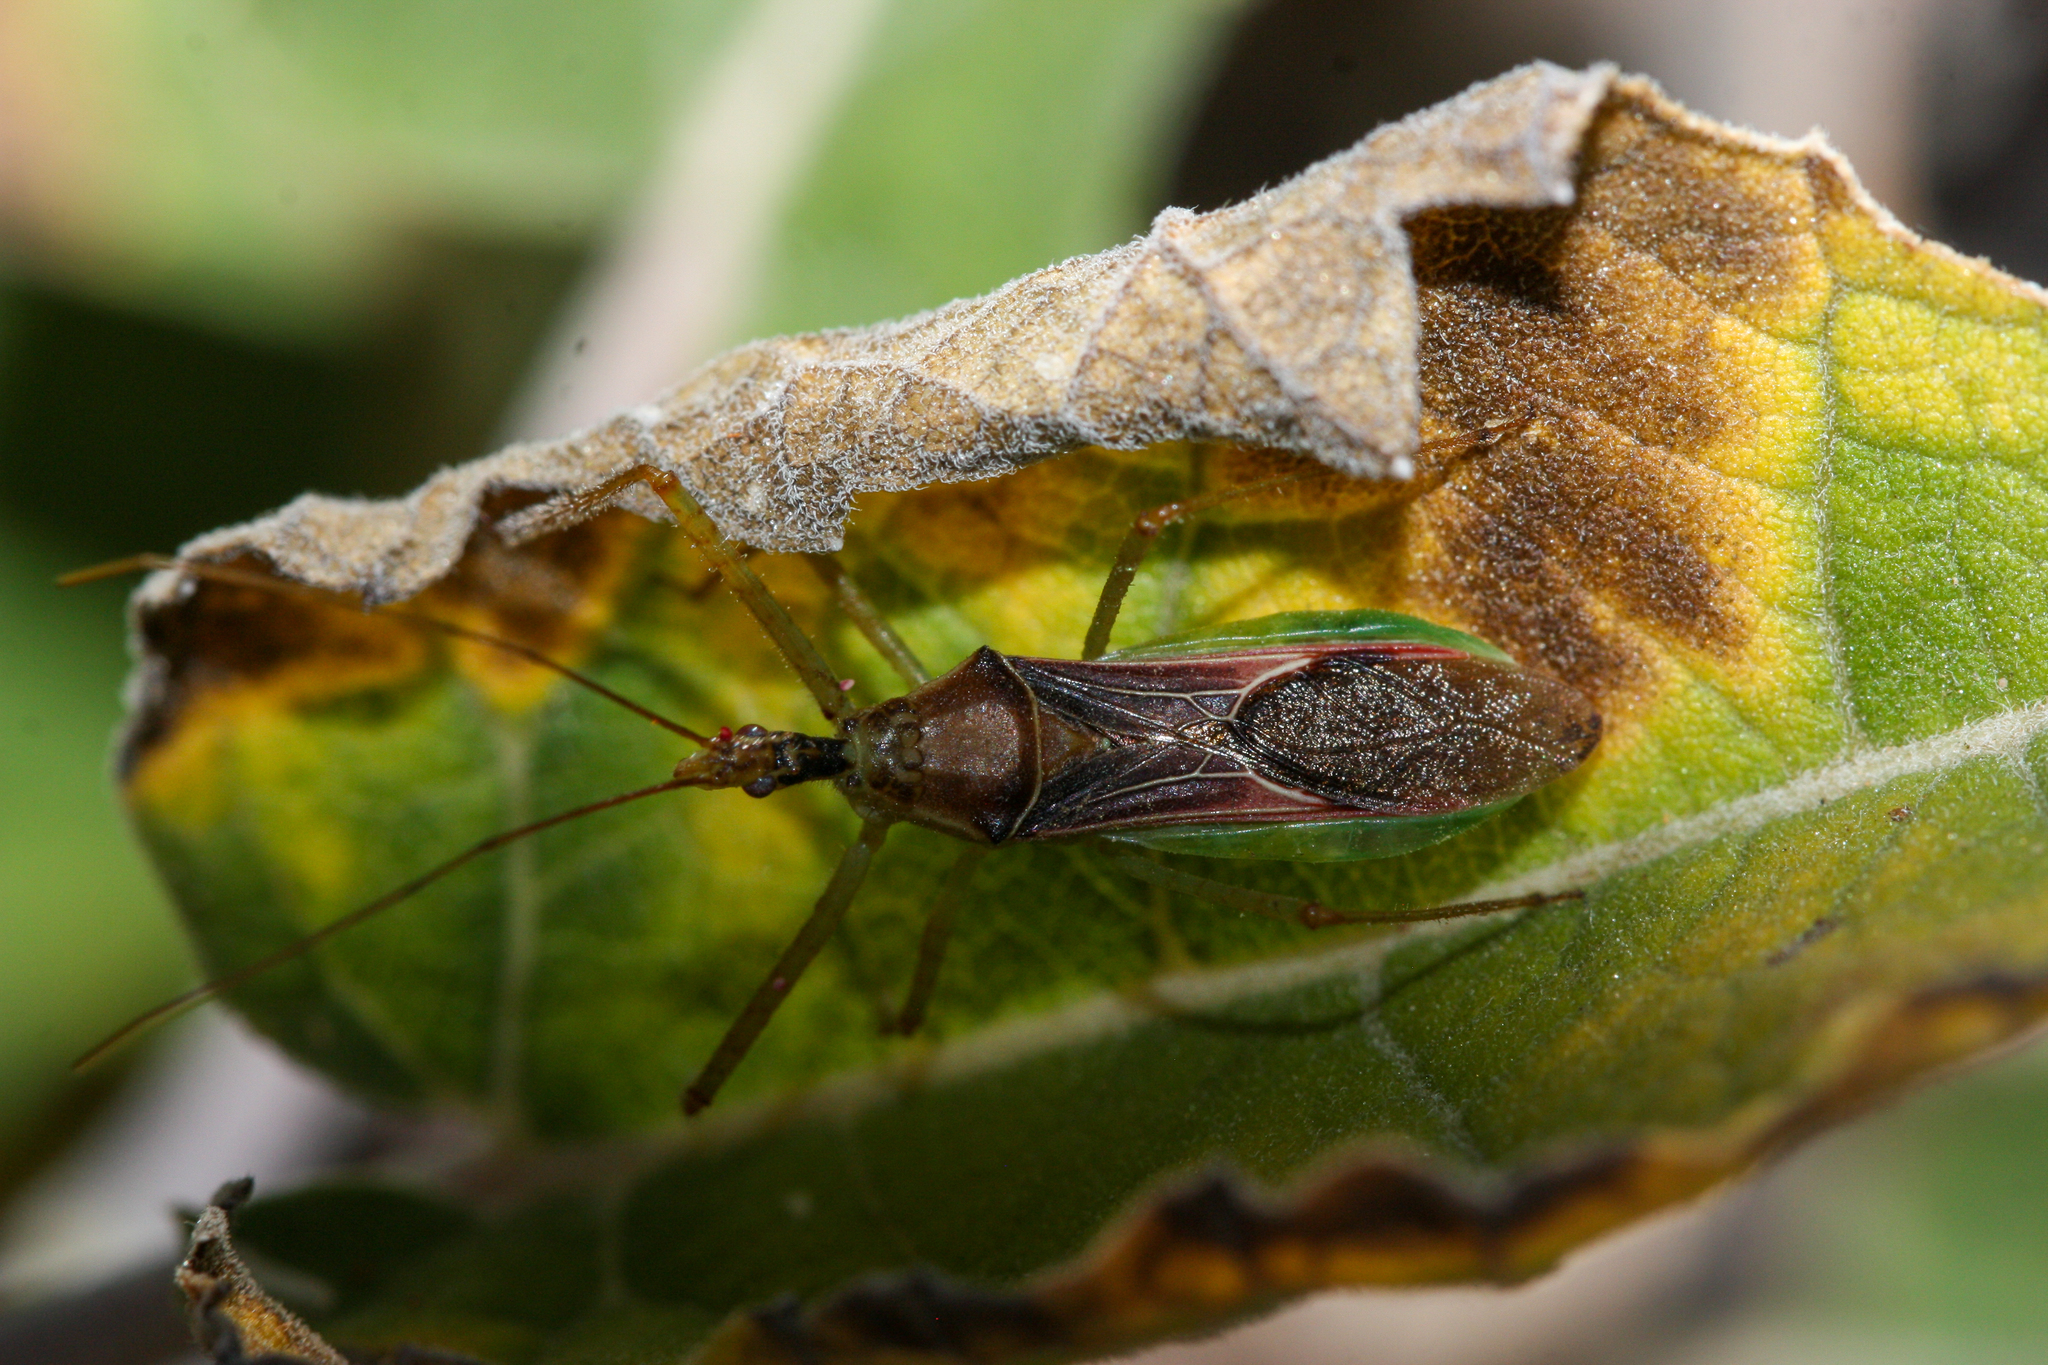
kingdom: Animalia
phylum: Arthropoda
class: Insecta
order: Hemiptera
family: Reduviidae
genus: Zelus
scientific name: Zelus renardii
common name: Assassin bug
